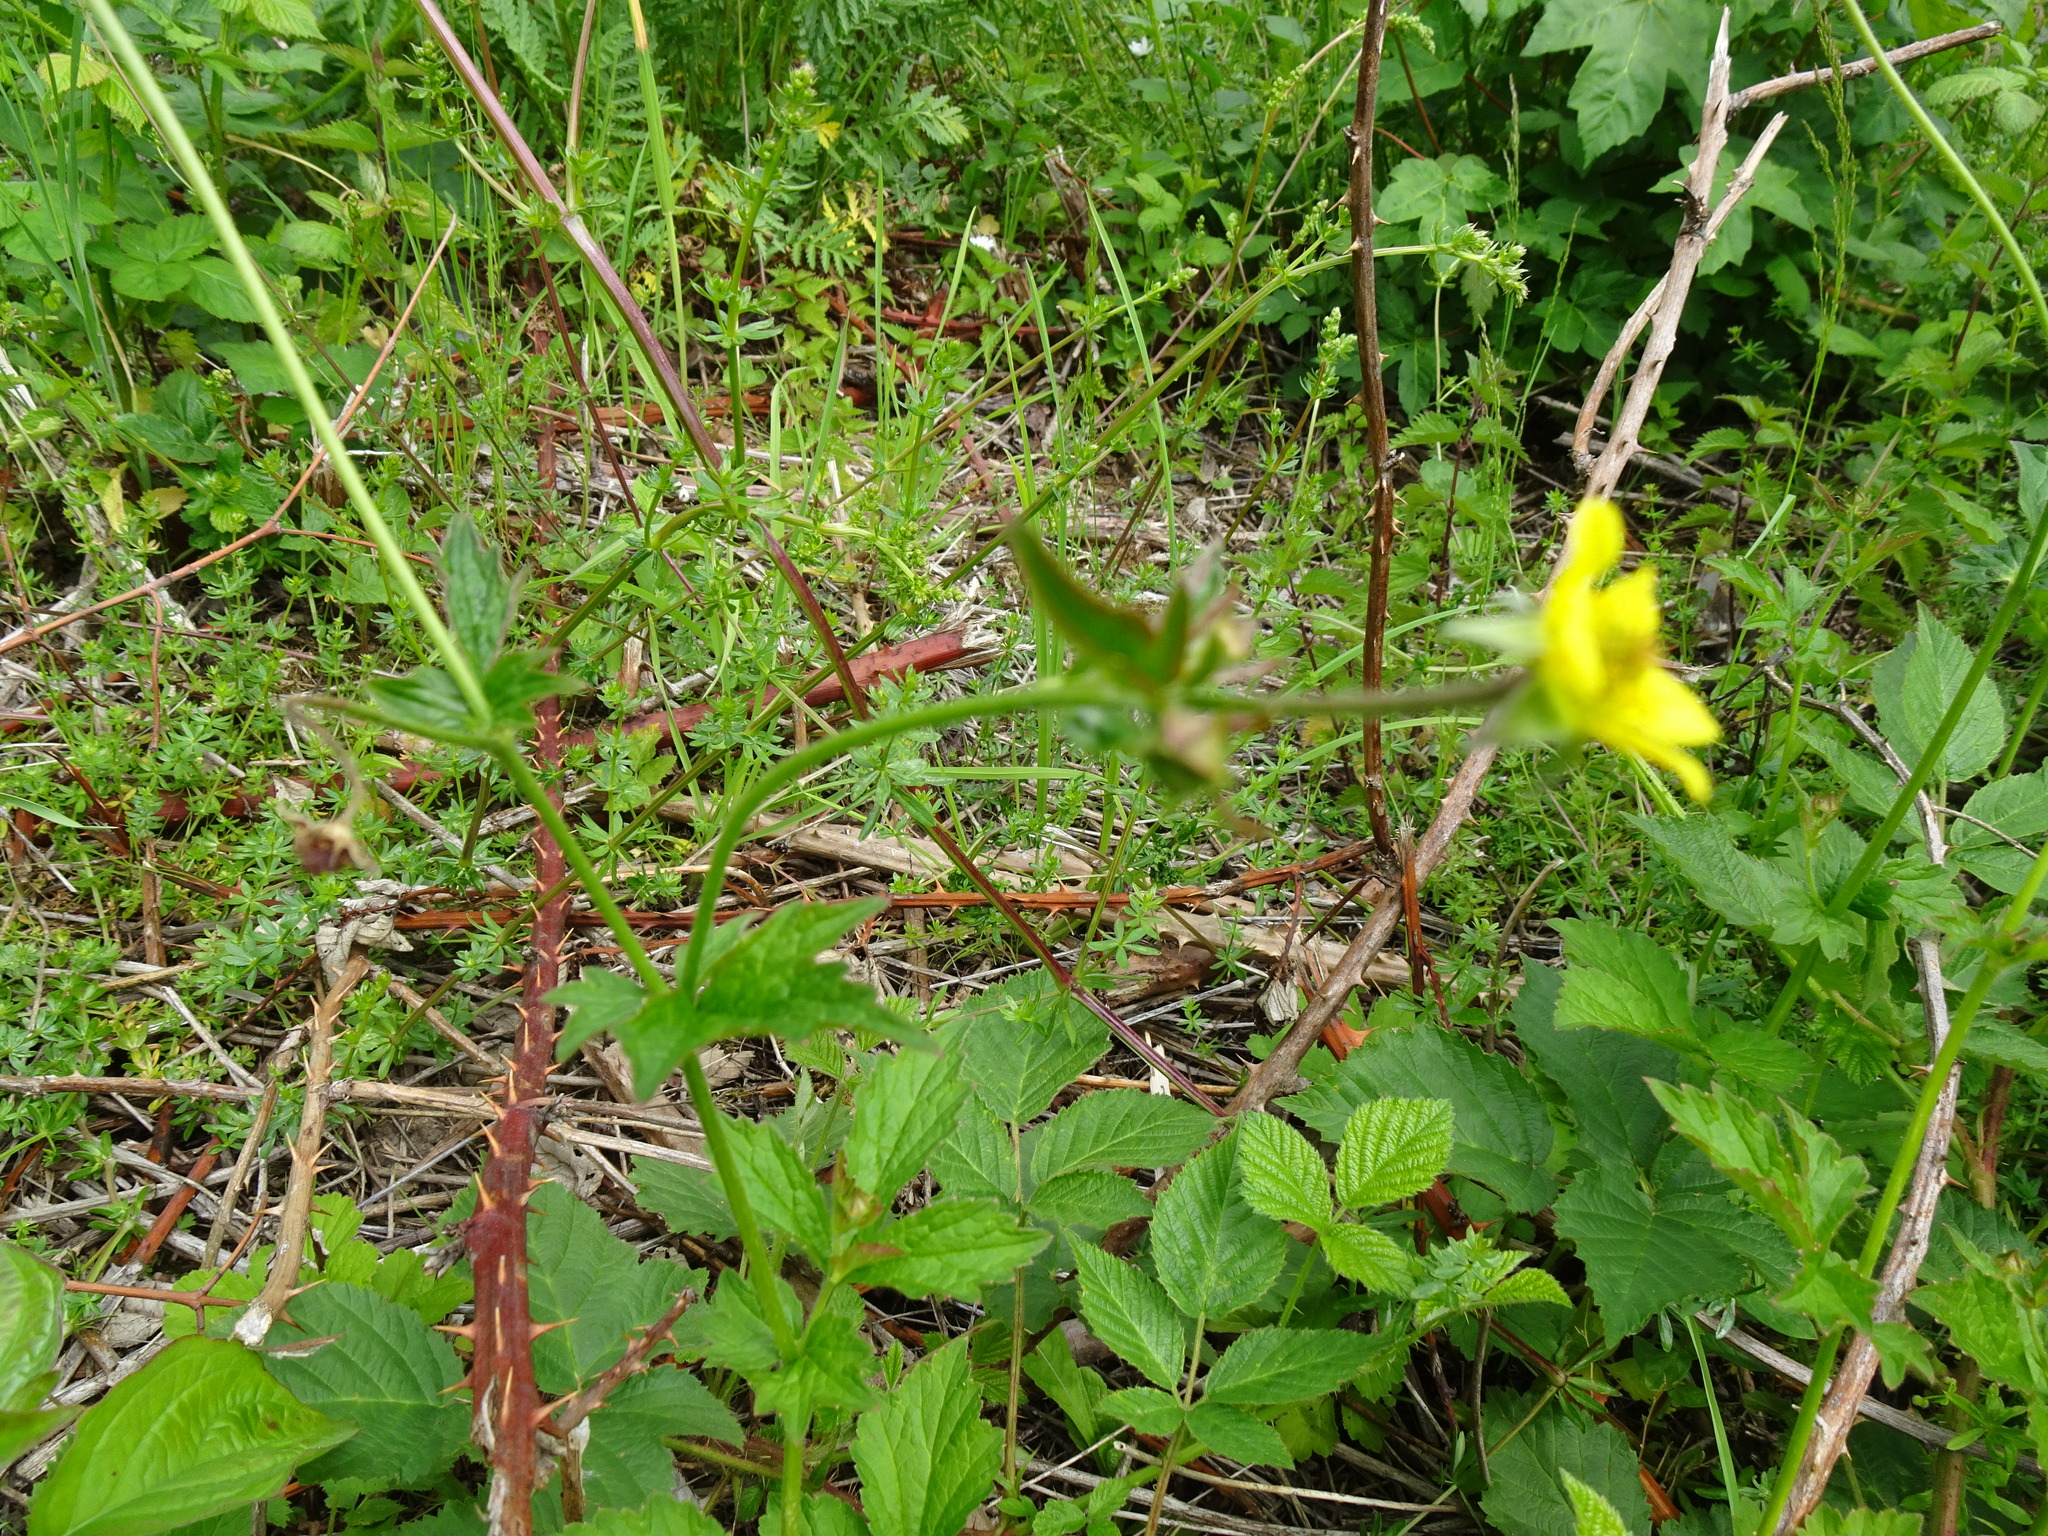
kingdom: Plantae
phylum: Tracheophyta
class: Magnoliopsida
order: Rosales
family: Rosaceae
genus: Geum
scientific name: Geum urbanum
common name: Wood avens
